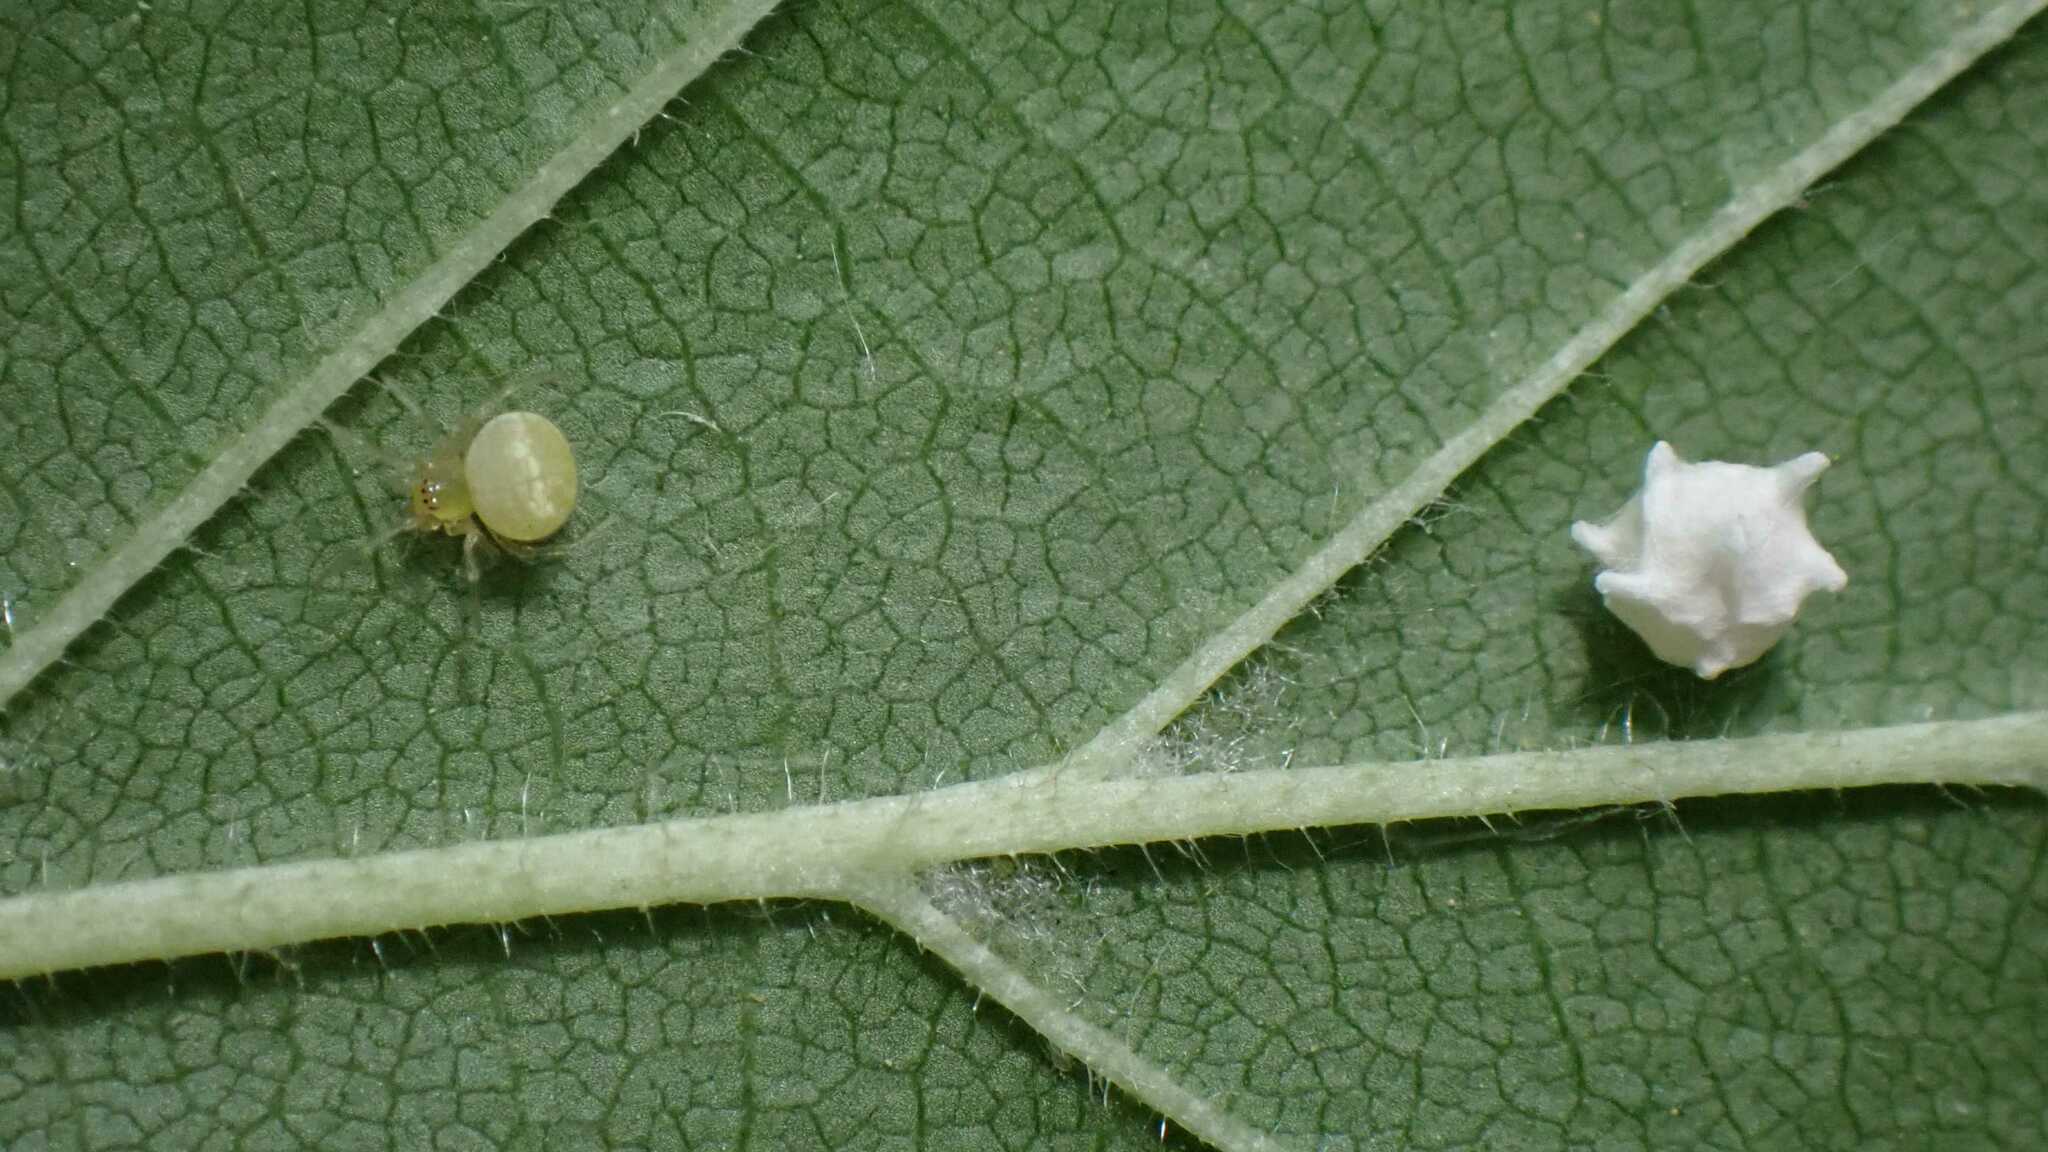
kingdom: Animalia
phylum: Arthropoda
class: Arachnida
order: Araneae
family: Theridiidae
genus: Paidiscura
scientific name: Paidiscura pallens
